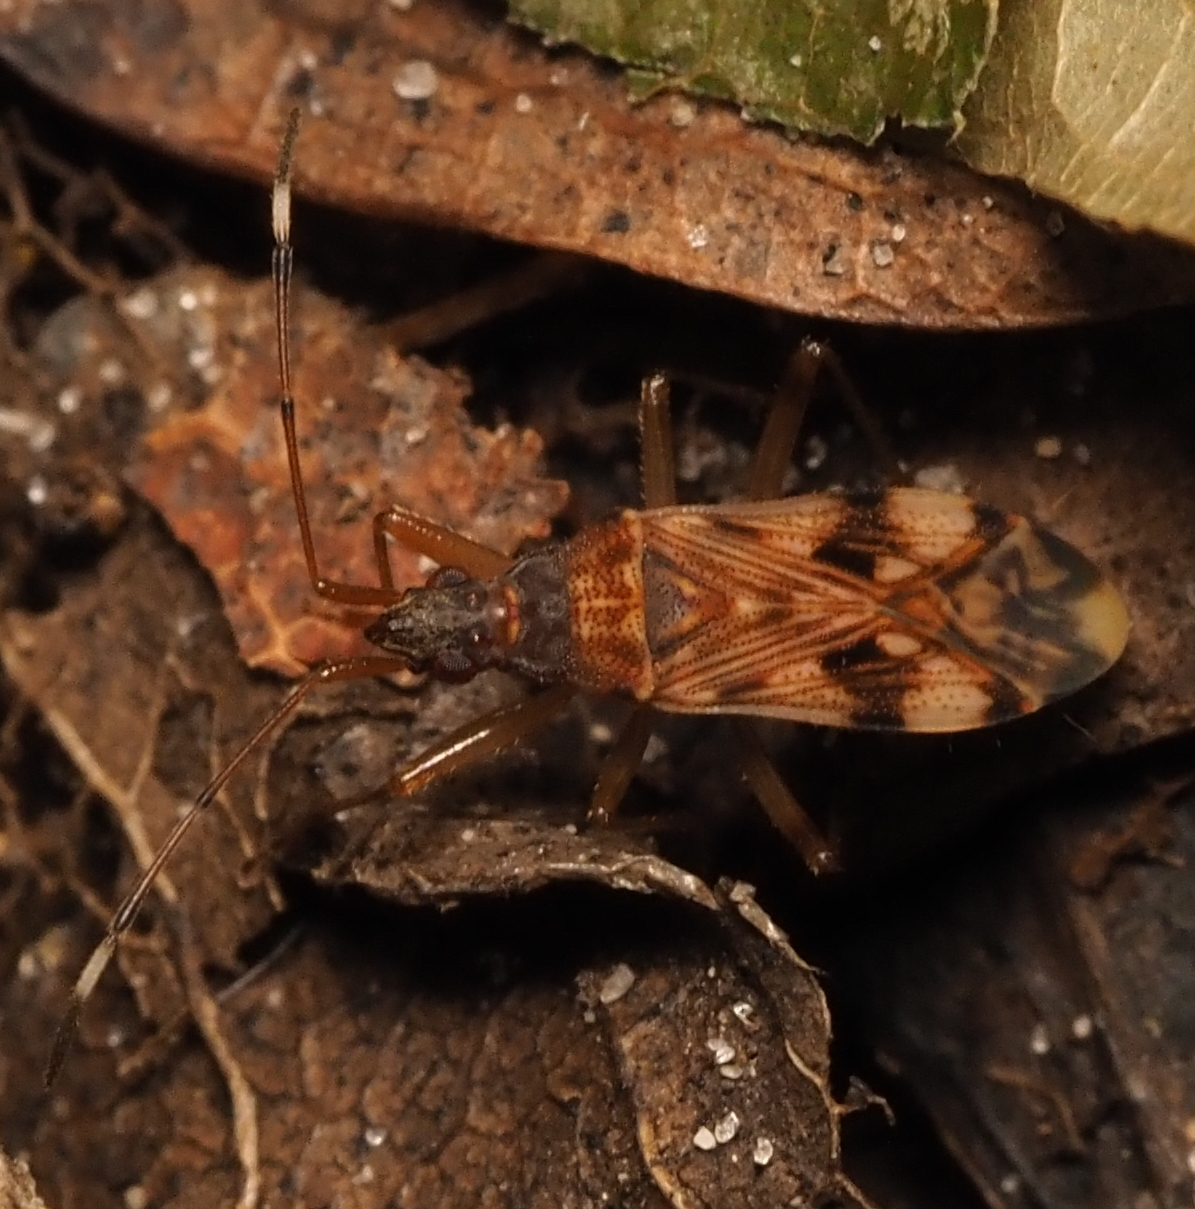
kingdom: Animalia
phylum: Arthropoda
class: Insecta
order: Hemiptera
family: Rhyparochromidae
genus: Ozophora
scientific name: Ozophora picturata
